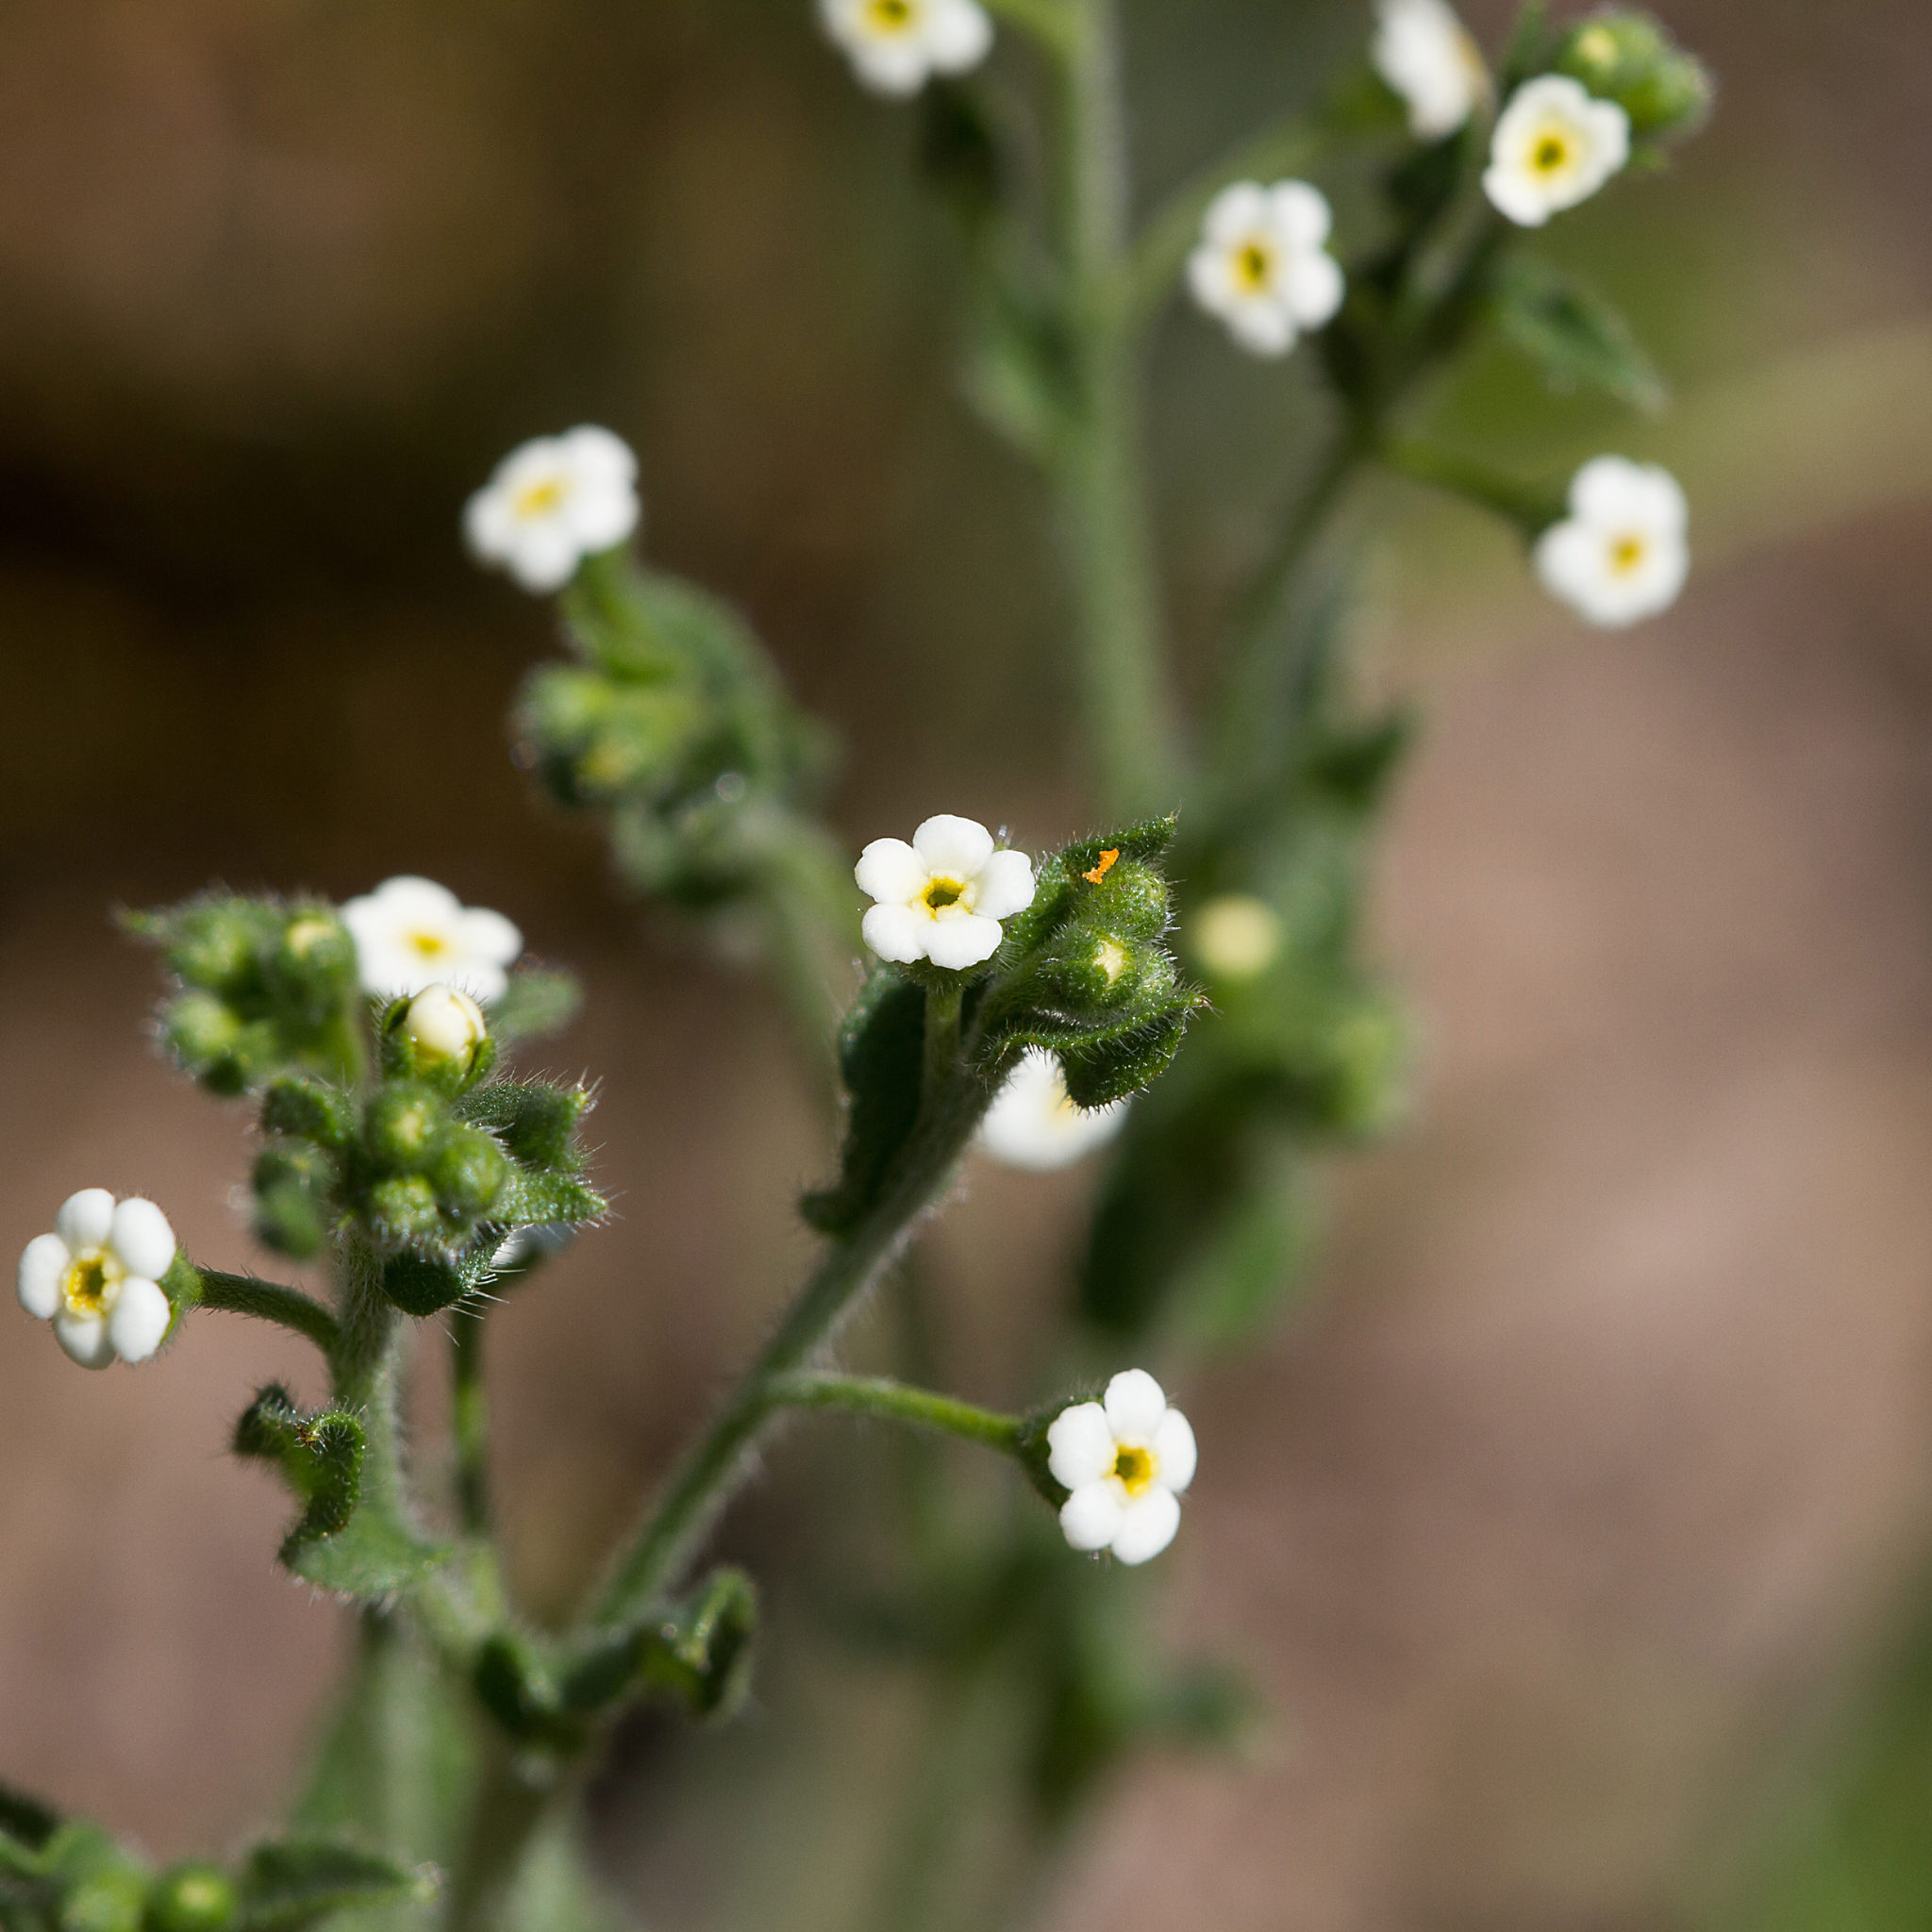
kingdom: Plantae
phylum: Tracheophyta
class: Magnoliopsida
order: Boraginales
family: Boraginaceae
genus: Hackelia
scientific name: Hackelia suaveolens
